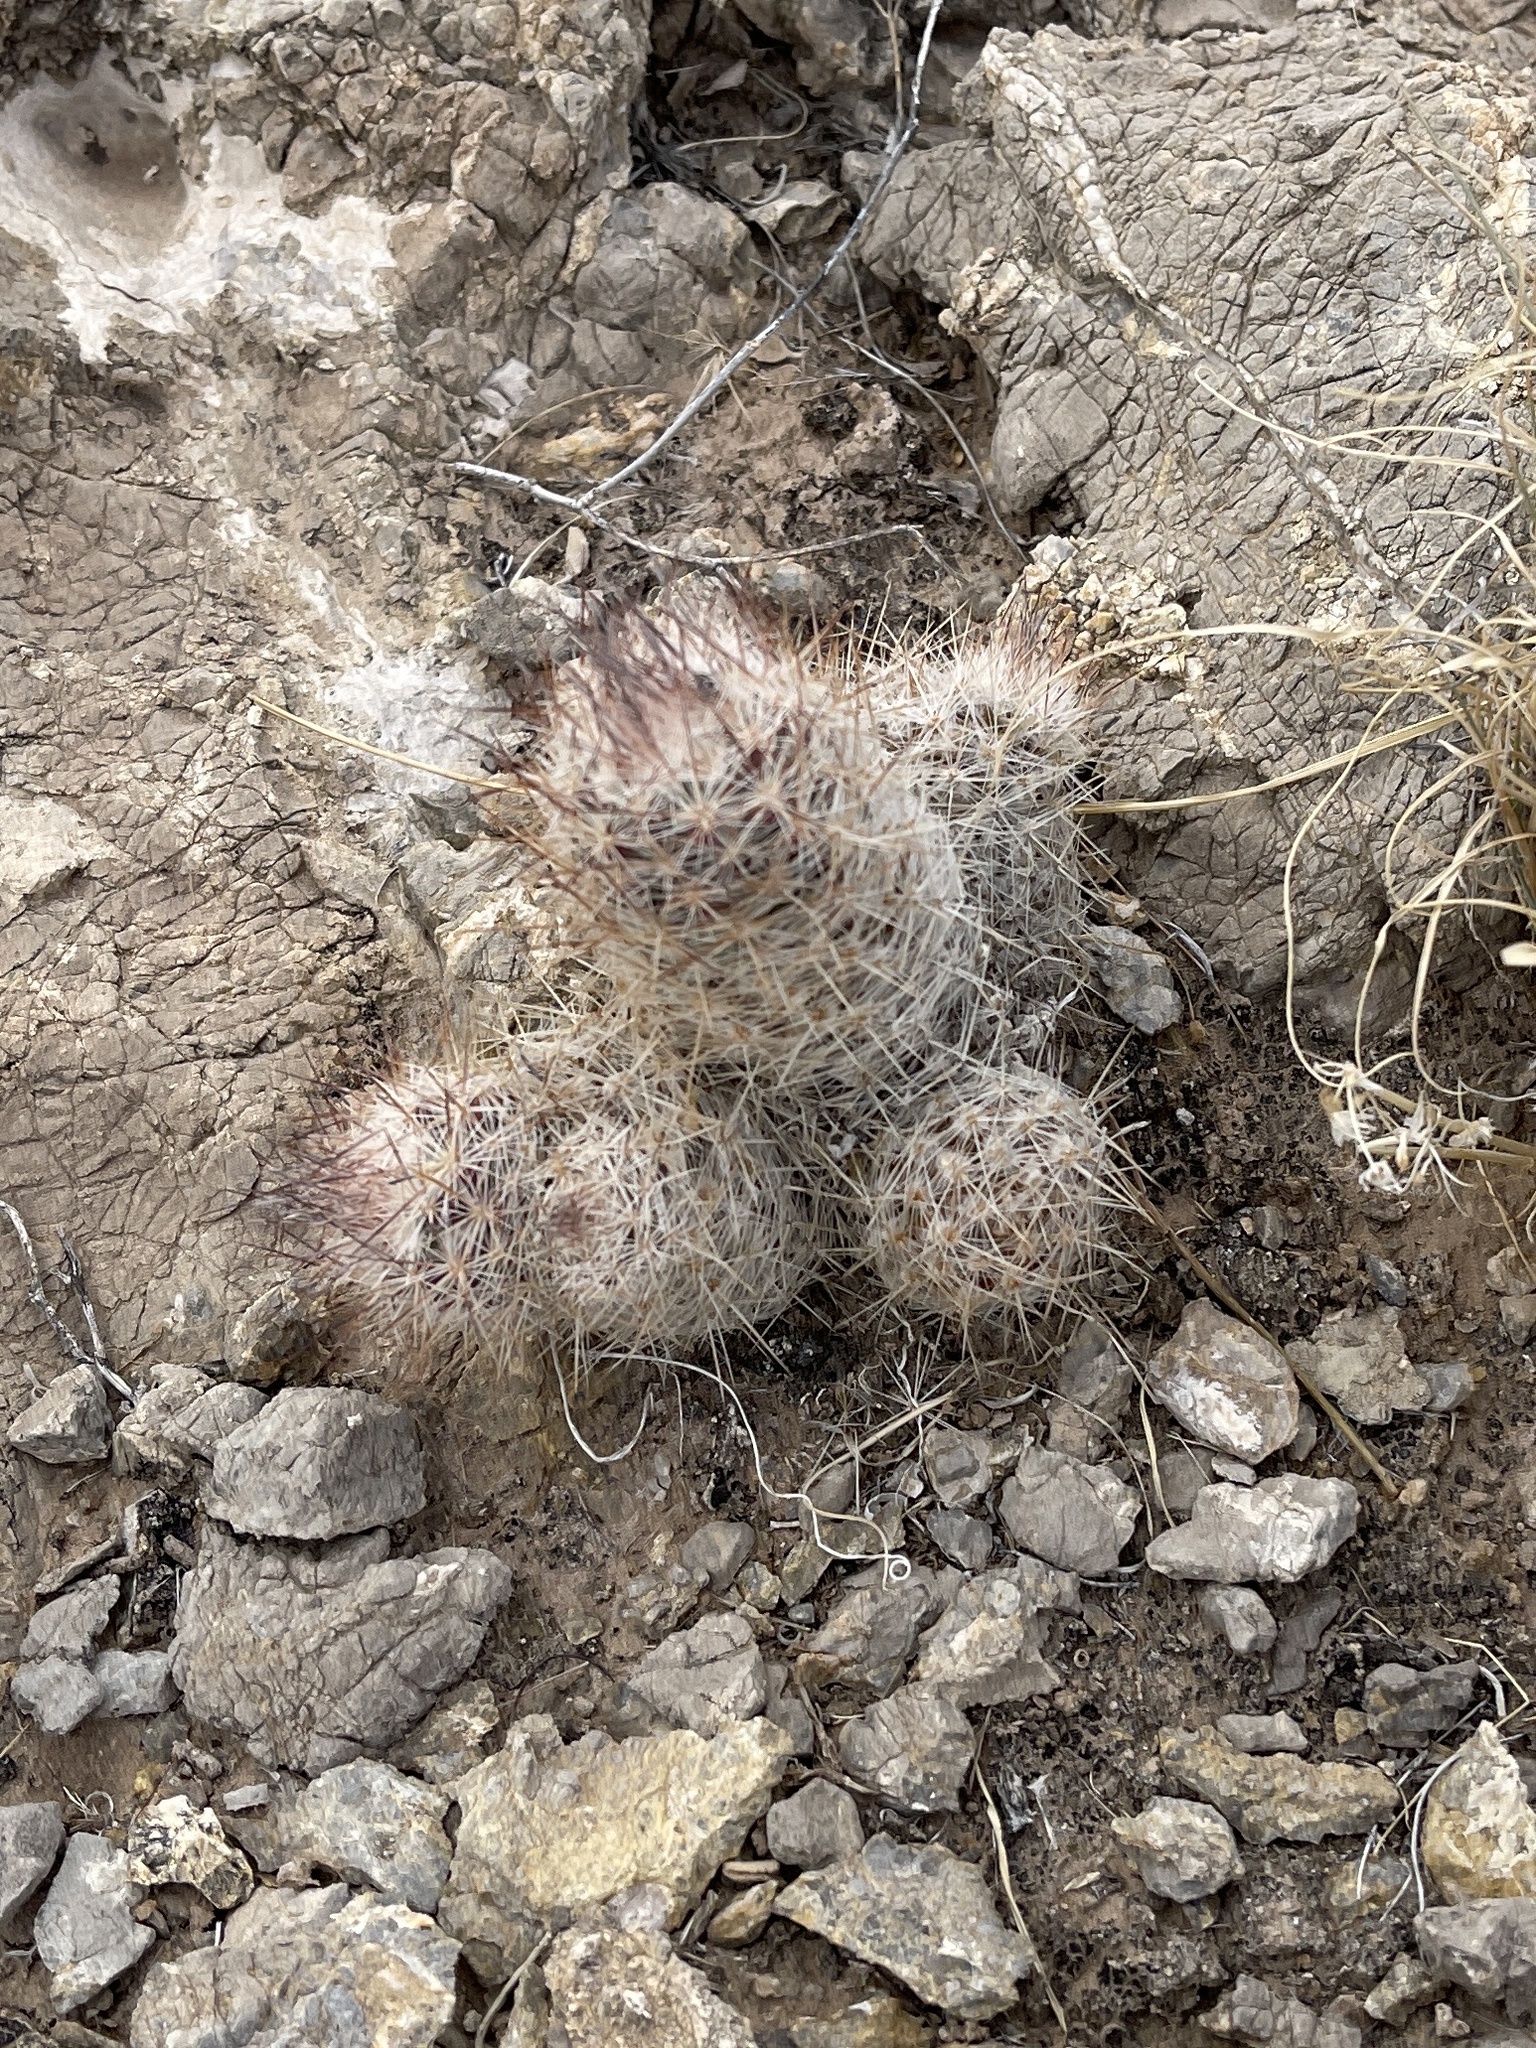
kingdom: Plantae
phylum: Tracheophyta
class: Magnoliopsida
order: Caryophyllales
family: Cactaceae
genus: Pelecyphora
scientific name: Pelecyphora tuberculosa
